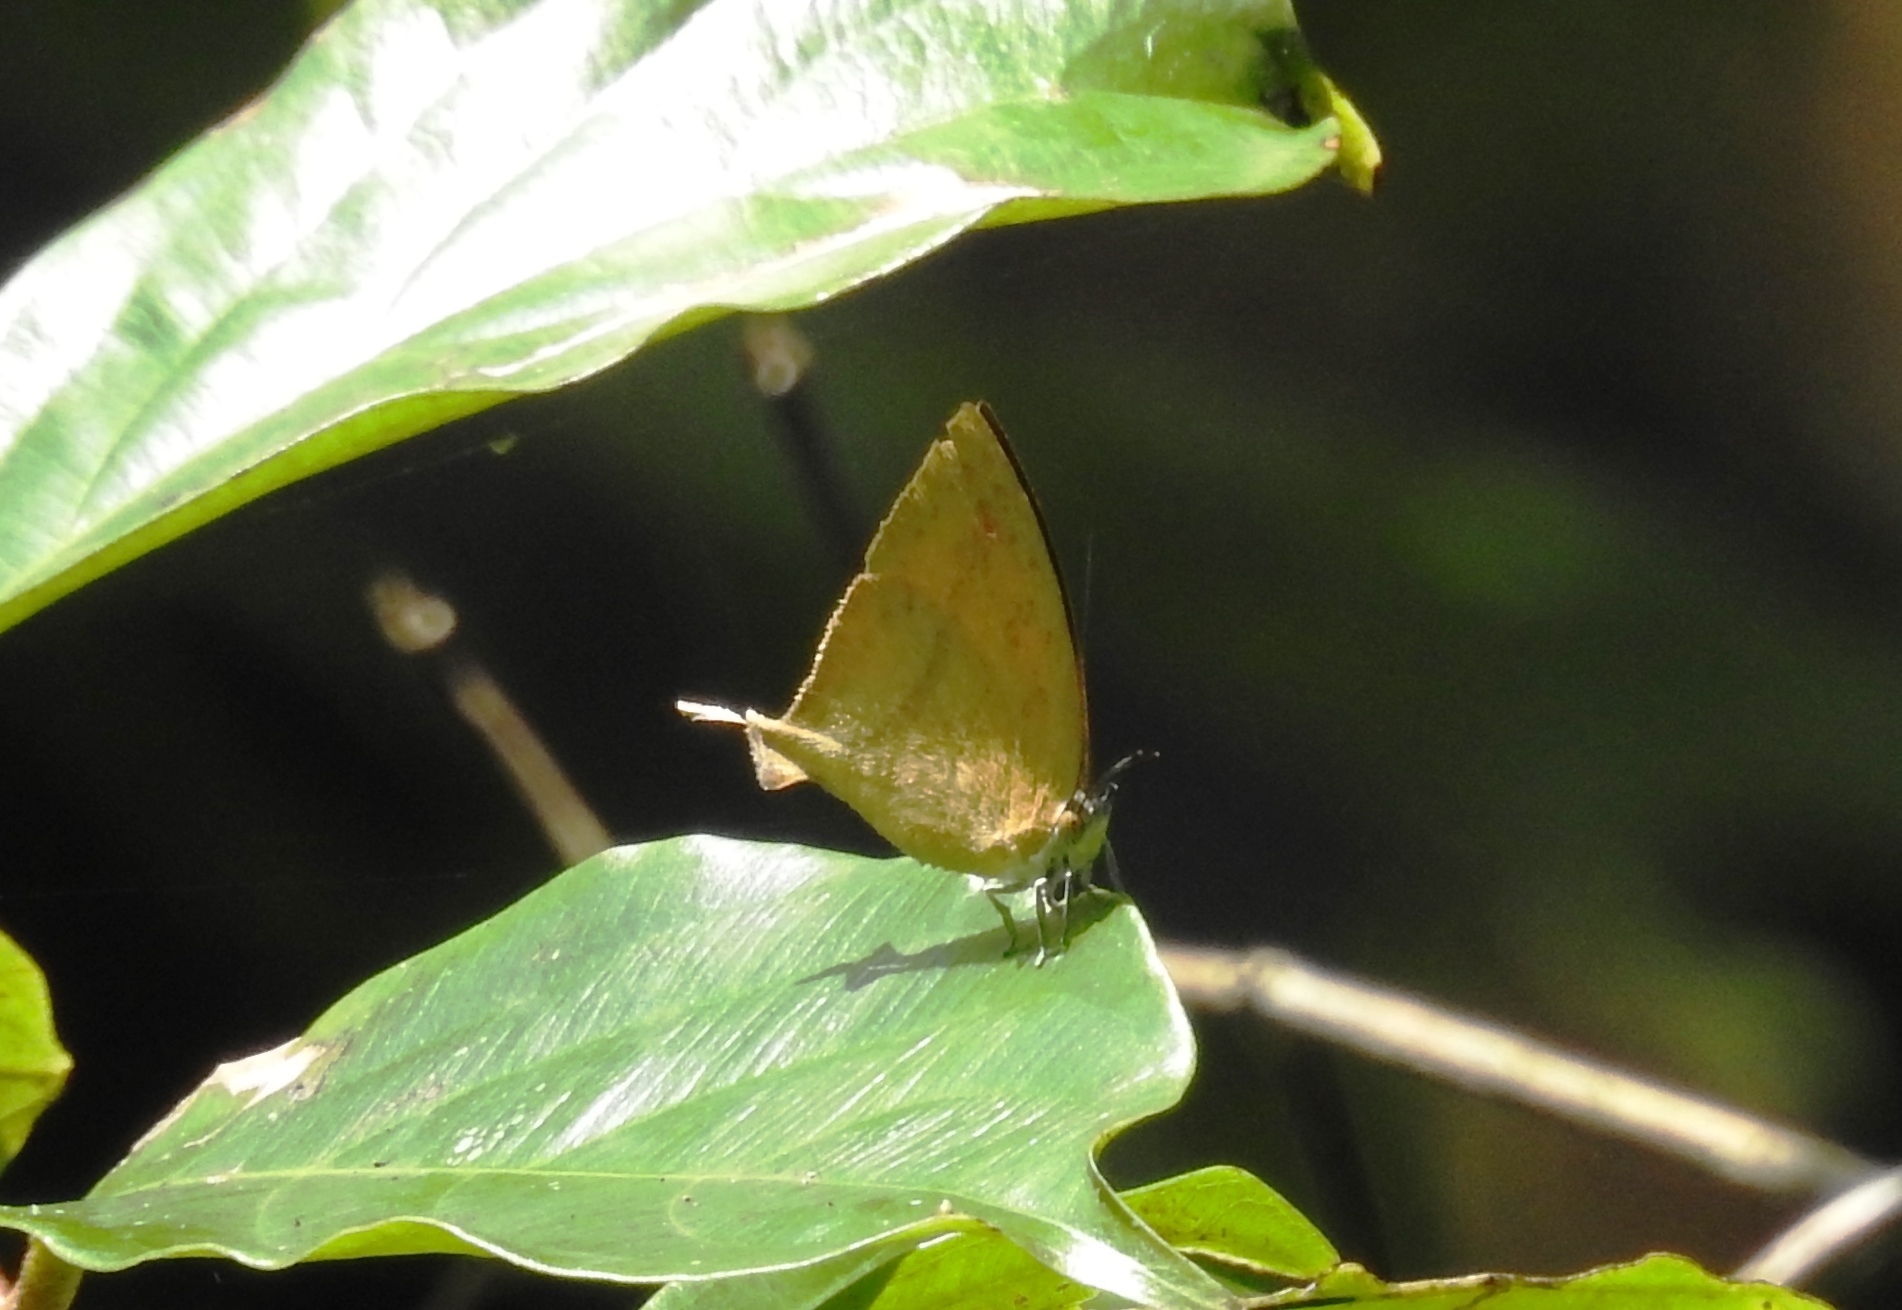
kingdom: Animalia
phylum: Arthropoda
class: Insecta
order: Lepidoptera
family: Lycaenidae
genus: Loxura
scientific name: Loxura atymnus
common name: Common yamfly
